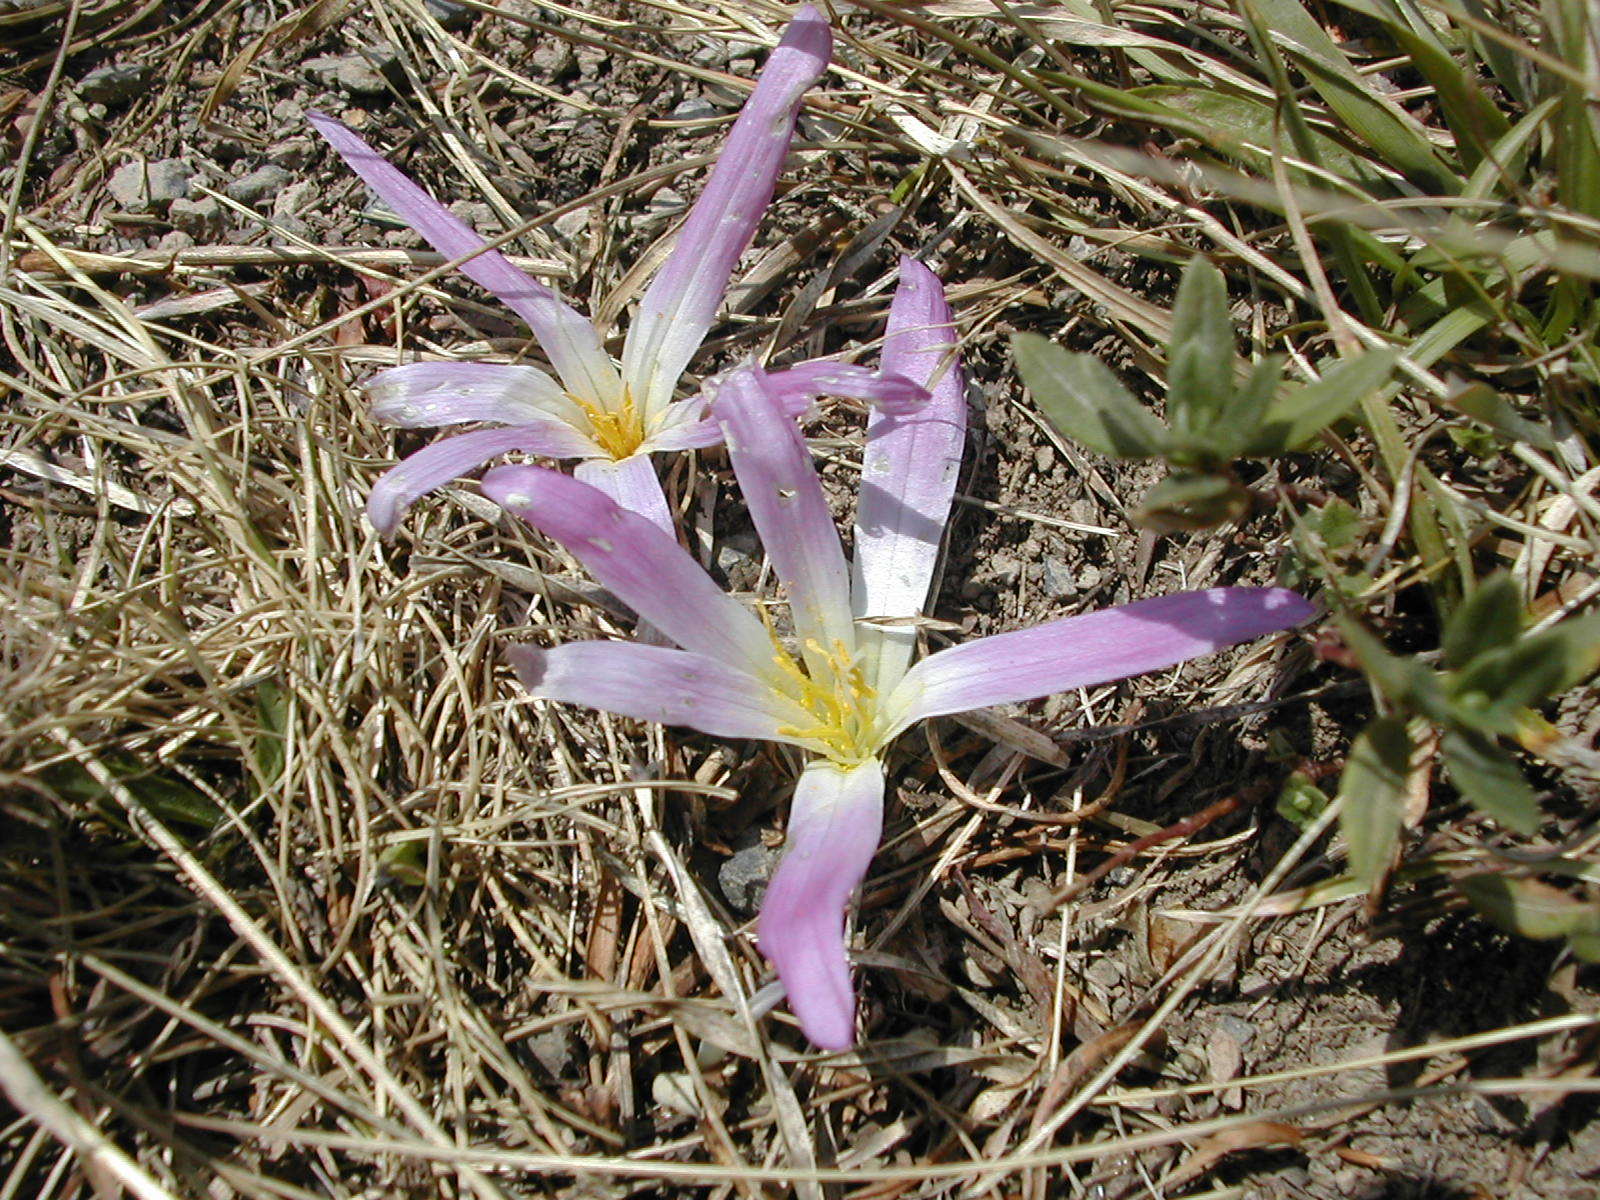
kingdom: Plantae
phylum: Tracheophyta
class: Liliopsida
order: Liliales
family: Colchicaceae
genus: Colchicum
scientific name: Colchicum montanum
